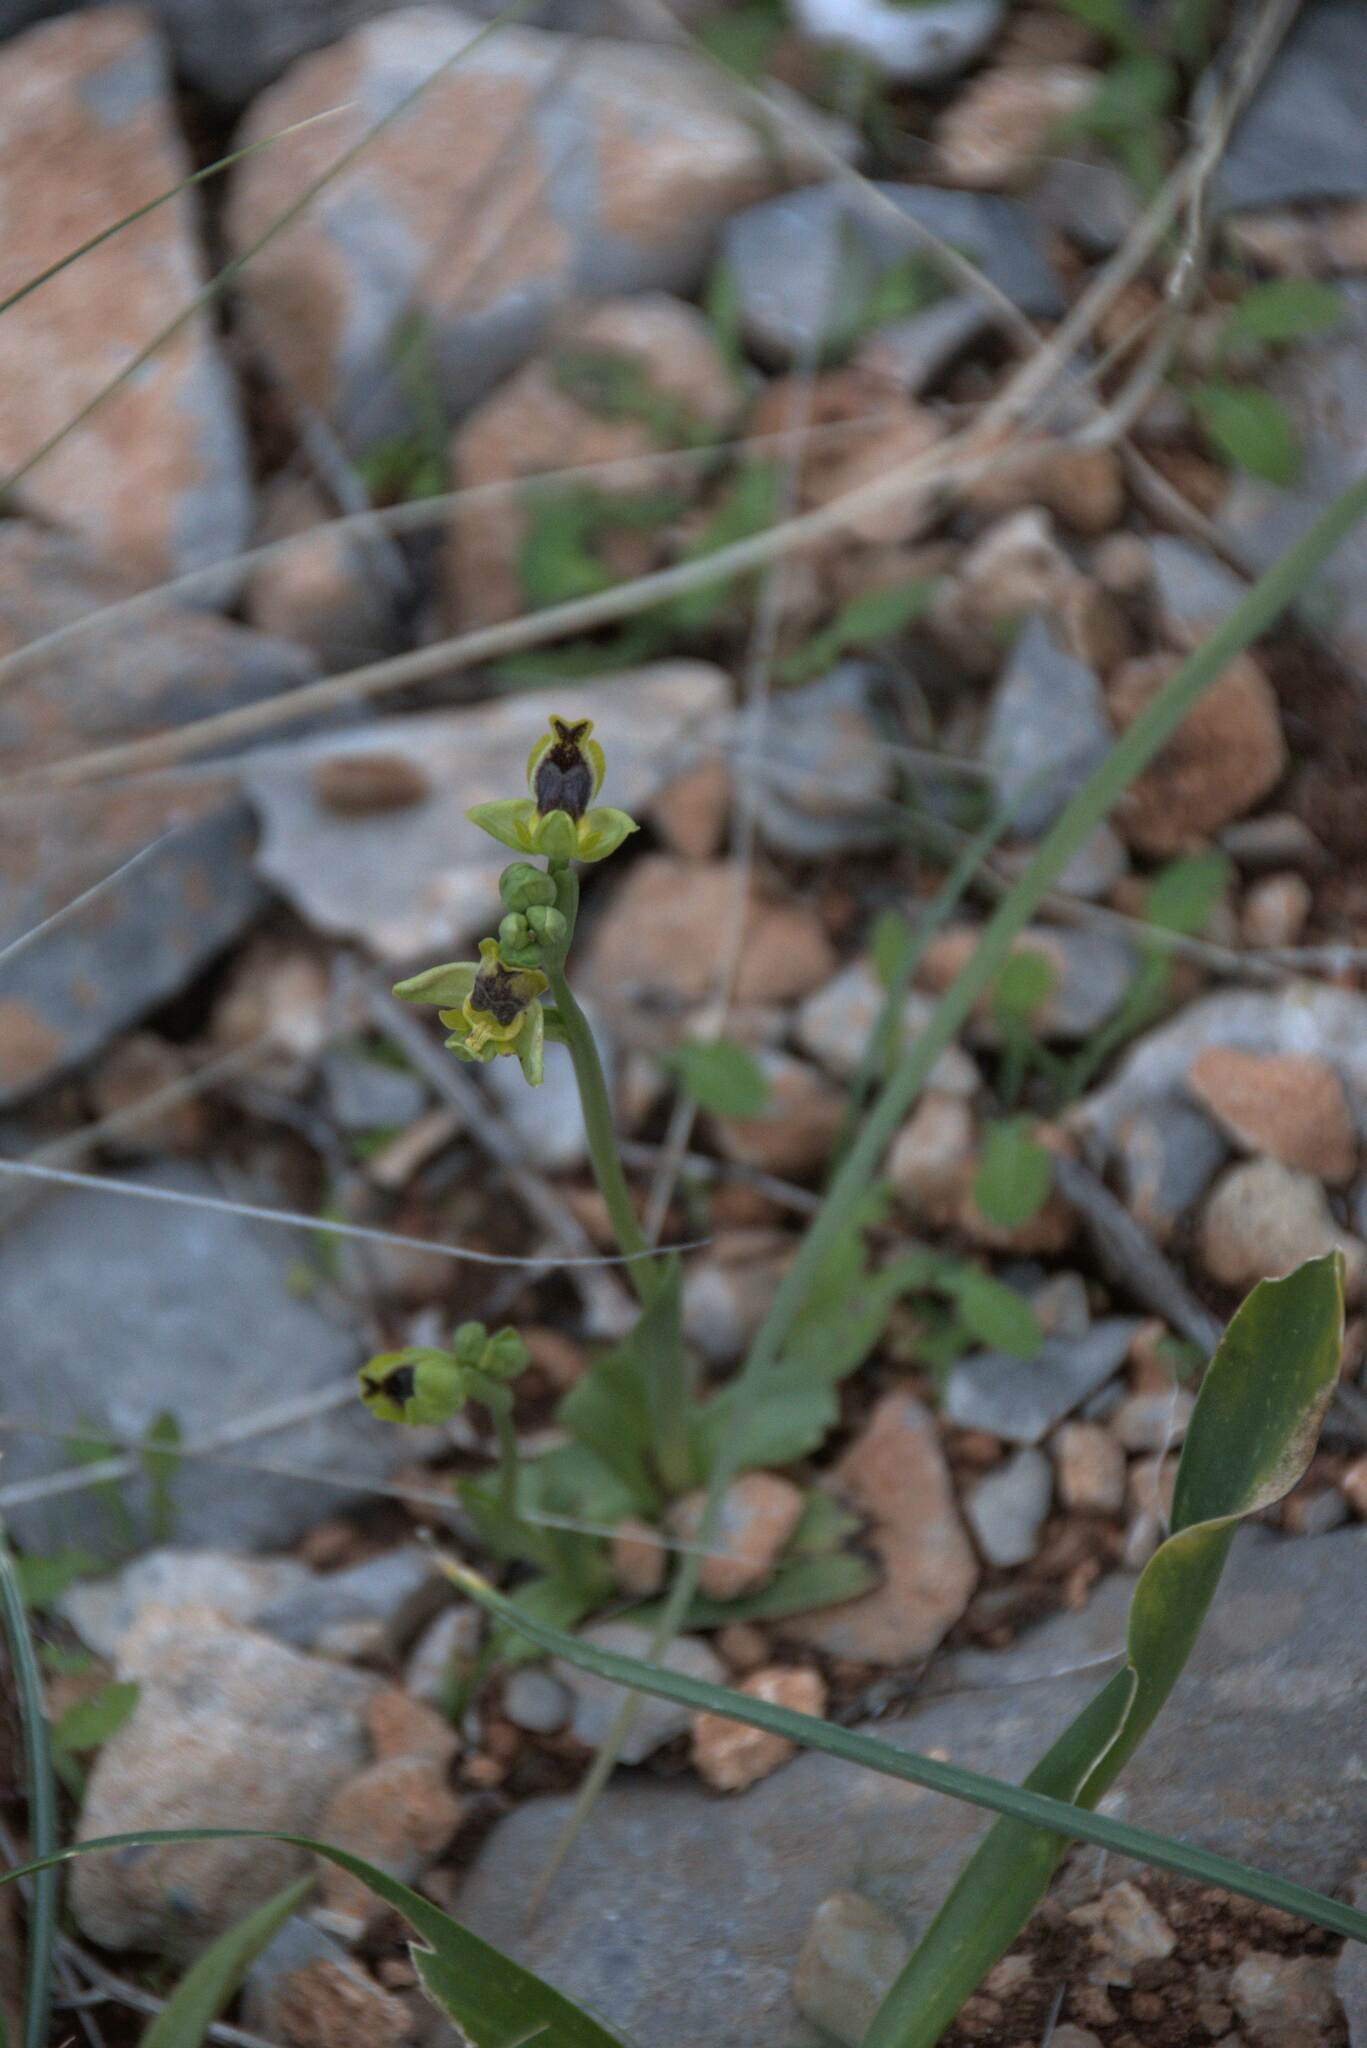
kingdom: Plantae
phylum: Tracheophyta
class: Liliopsida
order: Asparagales
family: Orchidaceae
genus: Ophrys
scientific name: Ophrys lutea
